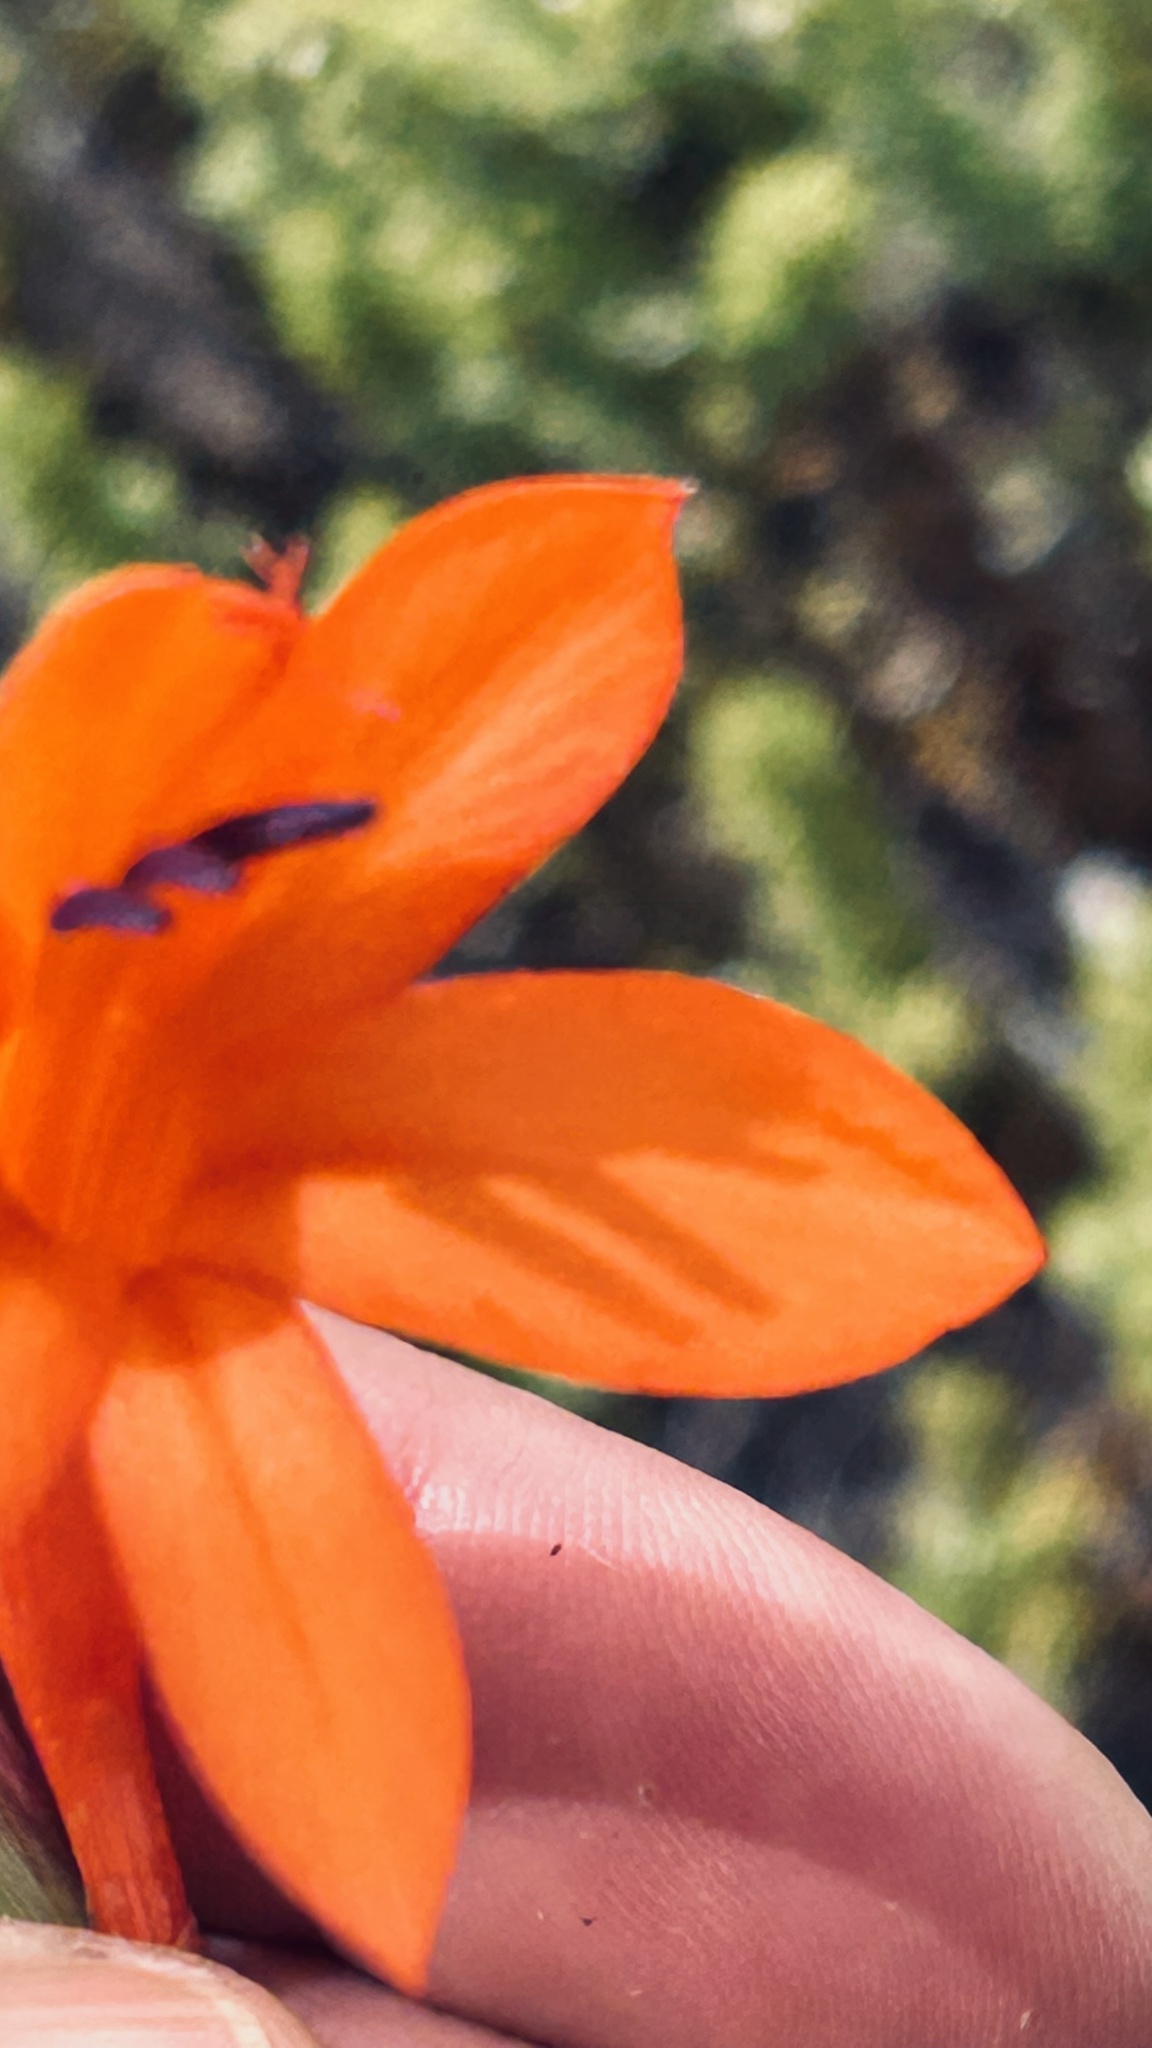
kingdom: Plantae
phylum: Tracheophyta
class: Liliopsida
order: Asparagales
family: Iridaceae
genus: Watsonia
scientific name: Watsonia fergusoniae
